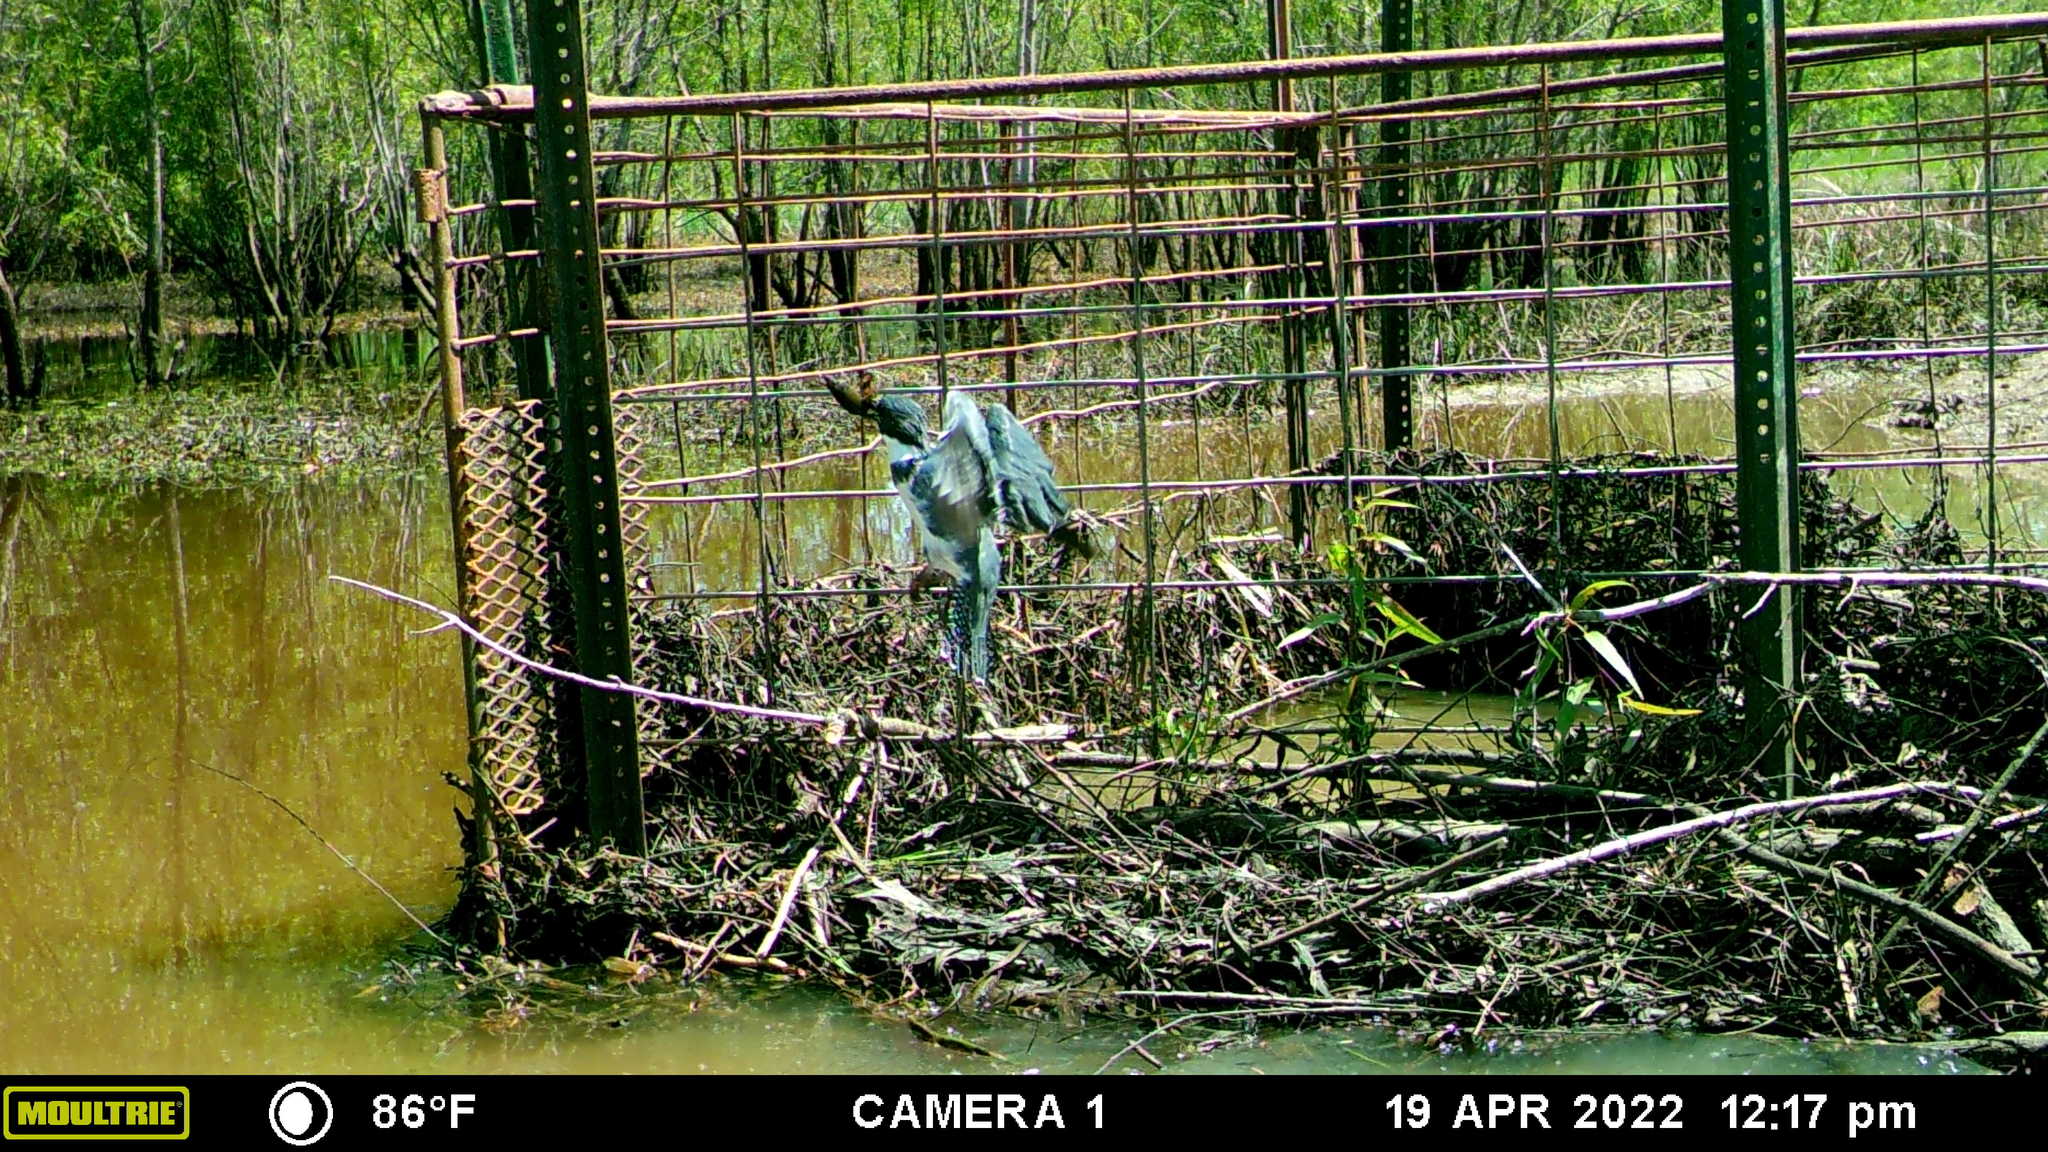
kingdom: Animalia
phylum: Chordata
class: Aves
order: Coraciiformes
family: Alcedinidae
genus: Megaceryle
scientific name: Megaceryle alcyon
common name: Belted kingfisher
